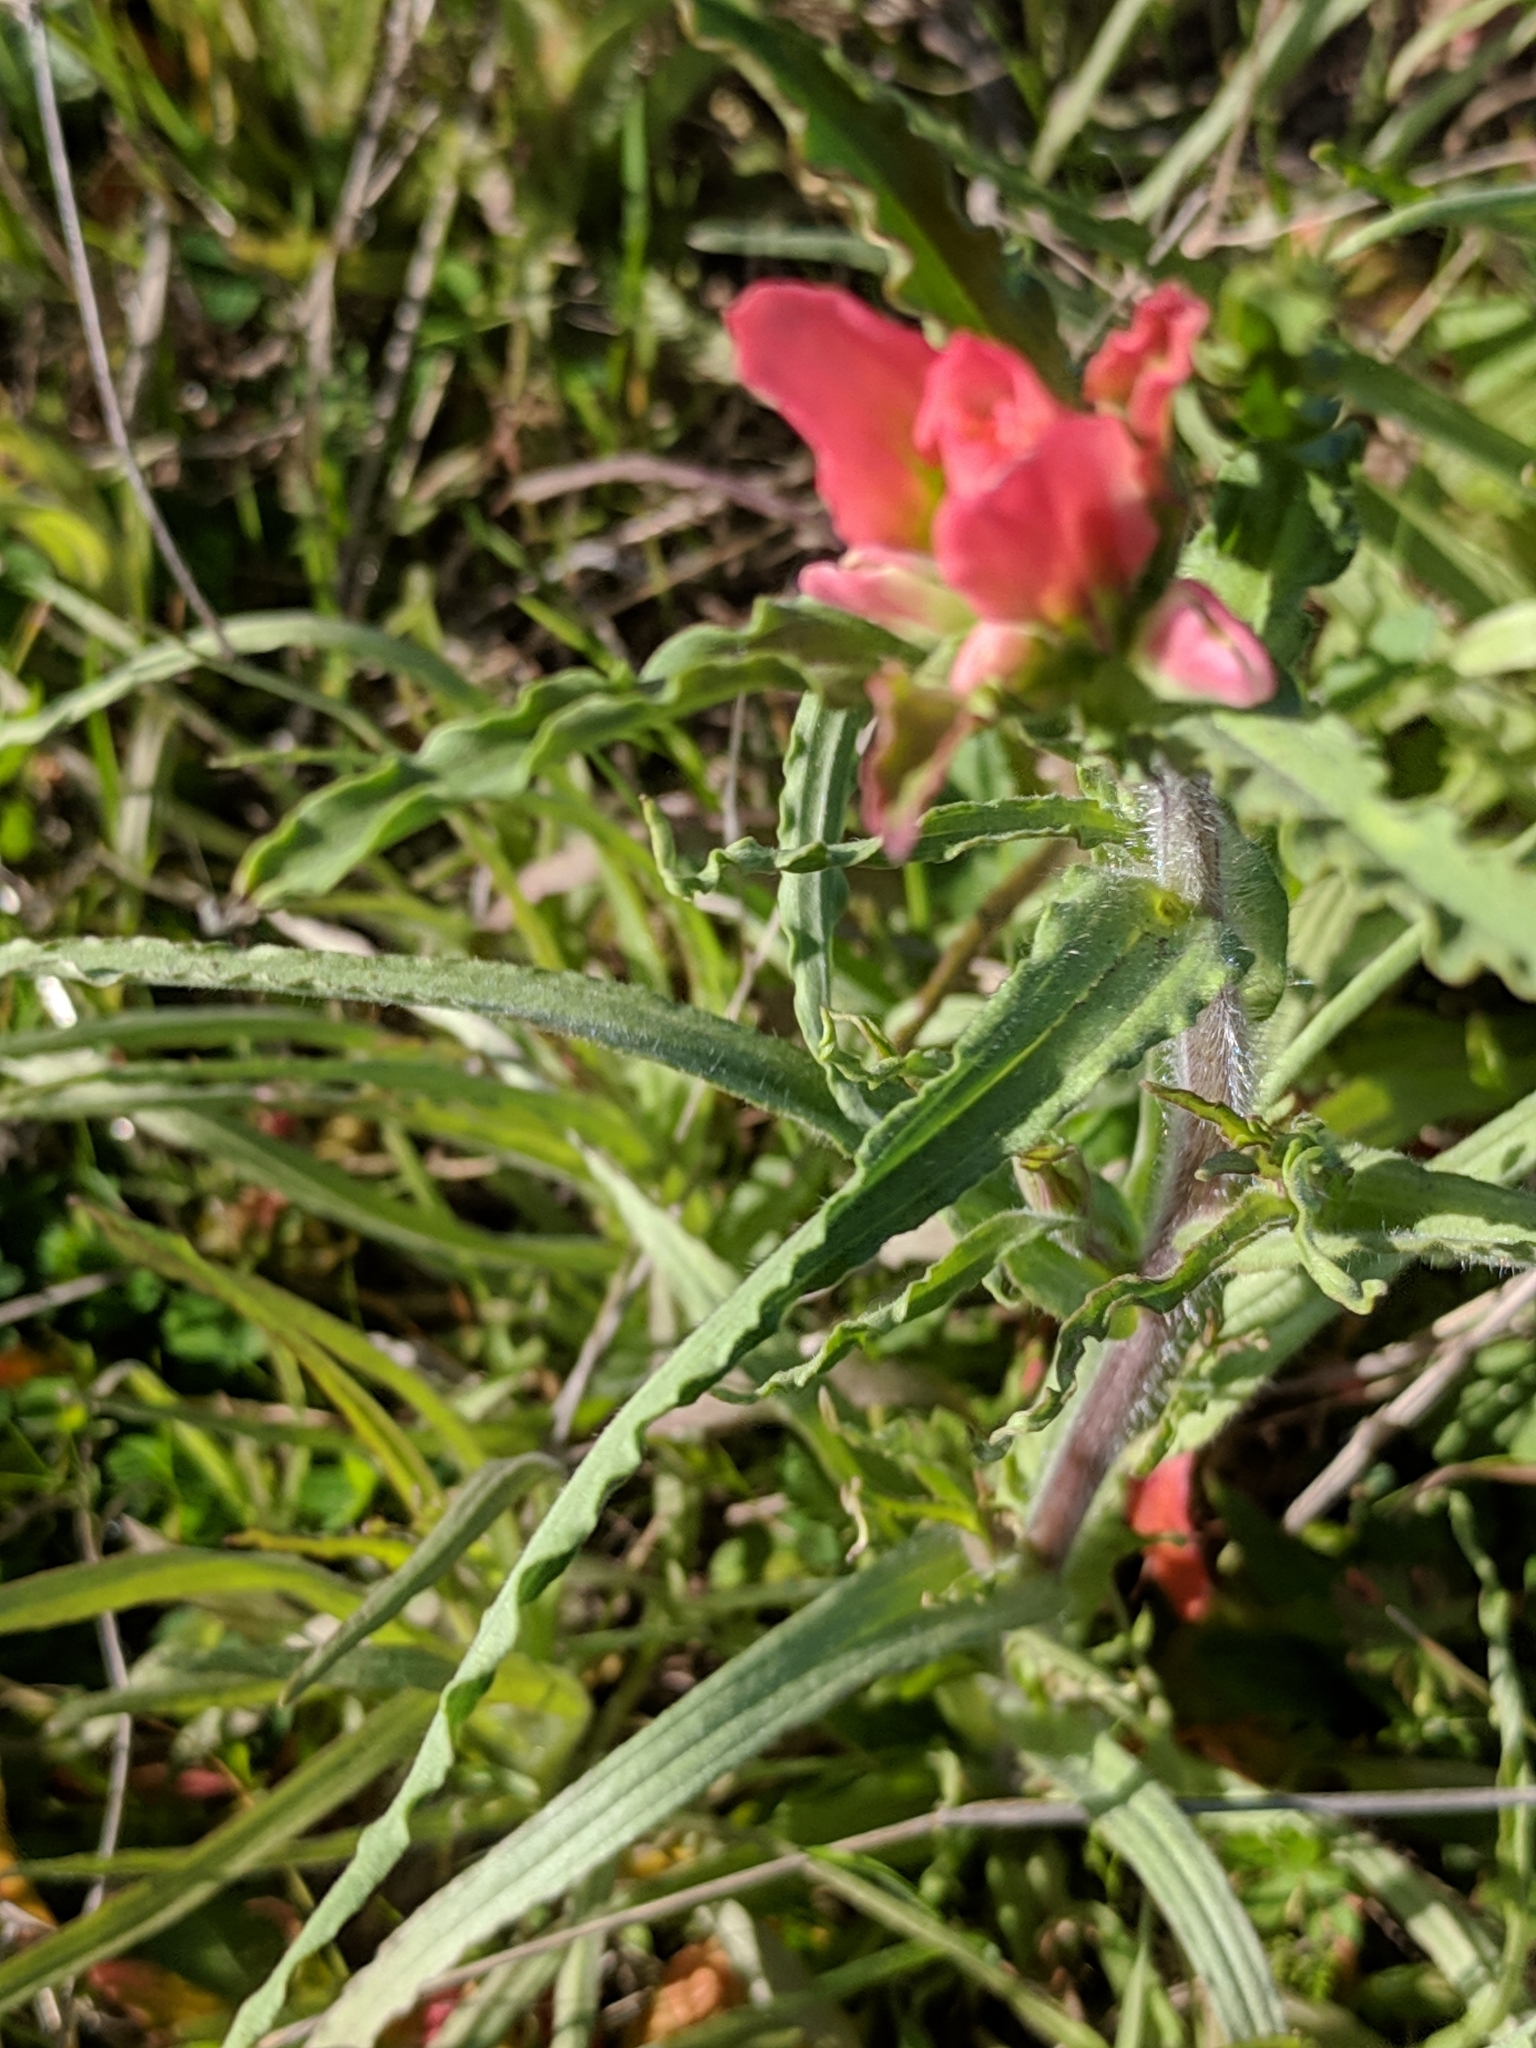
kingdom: Plantae
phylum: Tracheophyta
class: Magnoliopsida
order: Lamiales
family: Orobanchaceae
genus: Castilleja
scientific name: Castilleja indivisa
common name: Texas paintbrush
